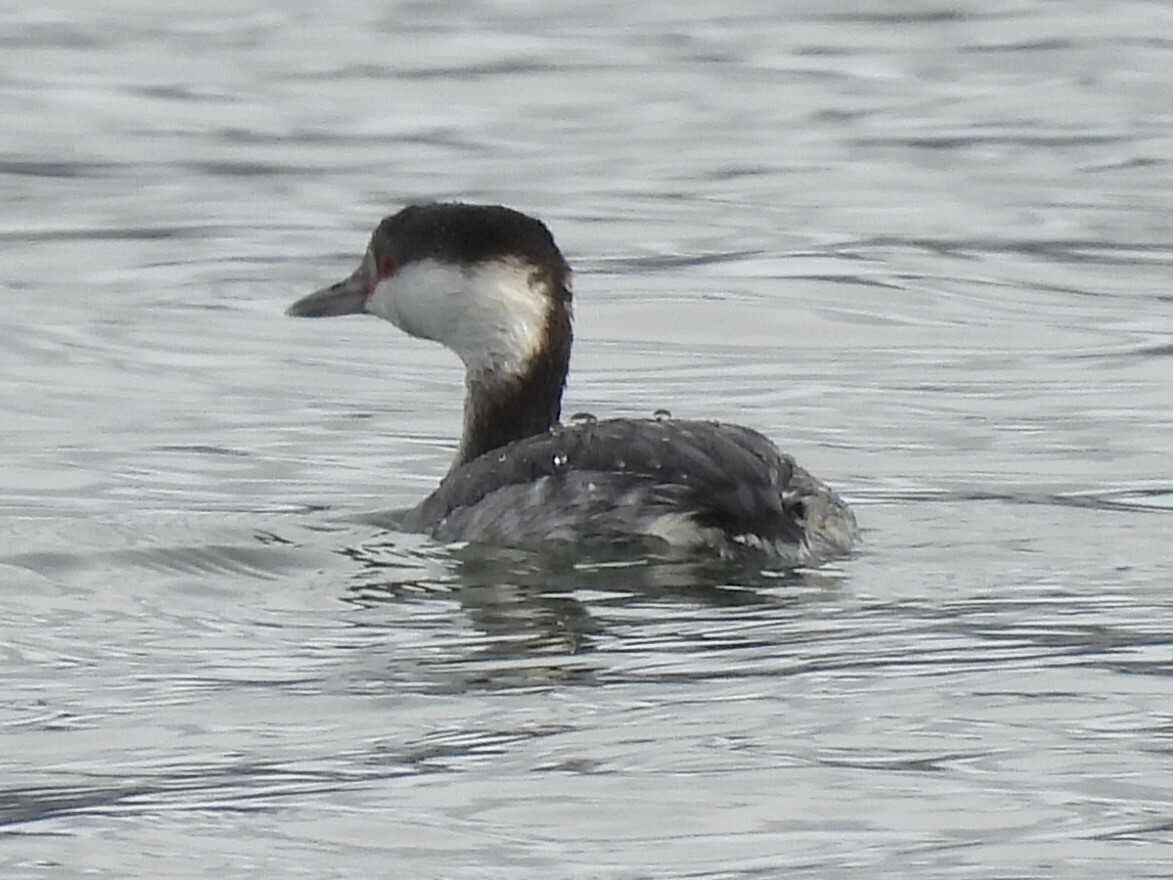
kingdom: Animalia
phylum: Chordata
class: Aves
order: Podicipediformes
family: Podicipedidae
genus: Podiceps
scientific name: Podiceps auritus
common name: Horned grebe
